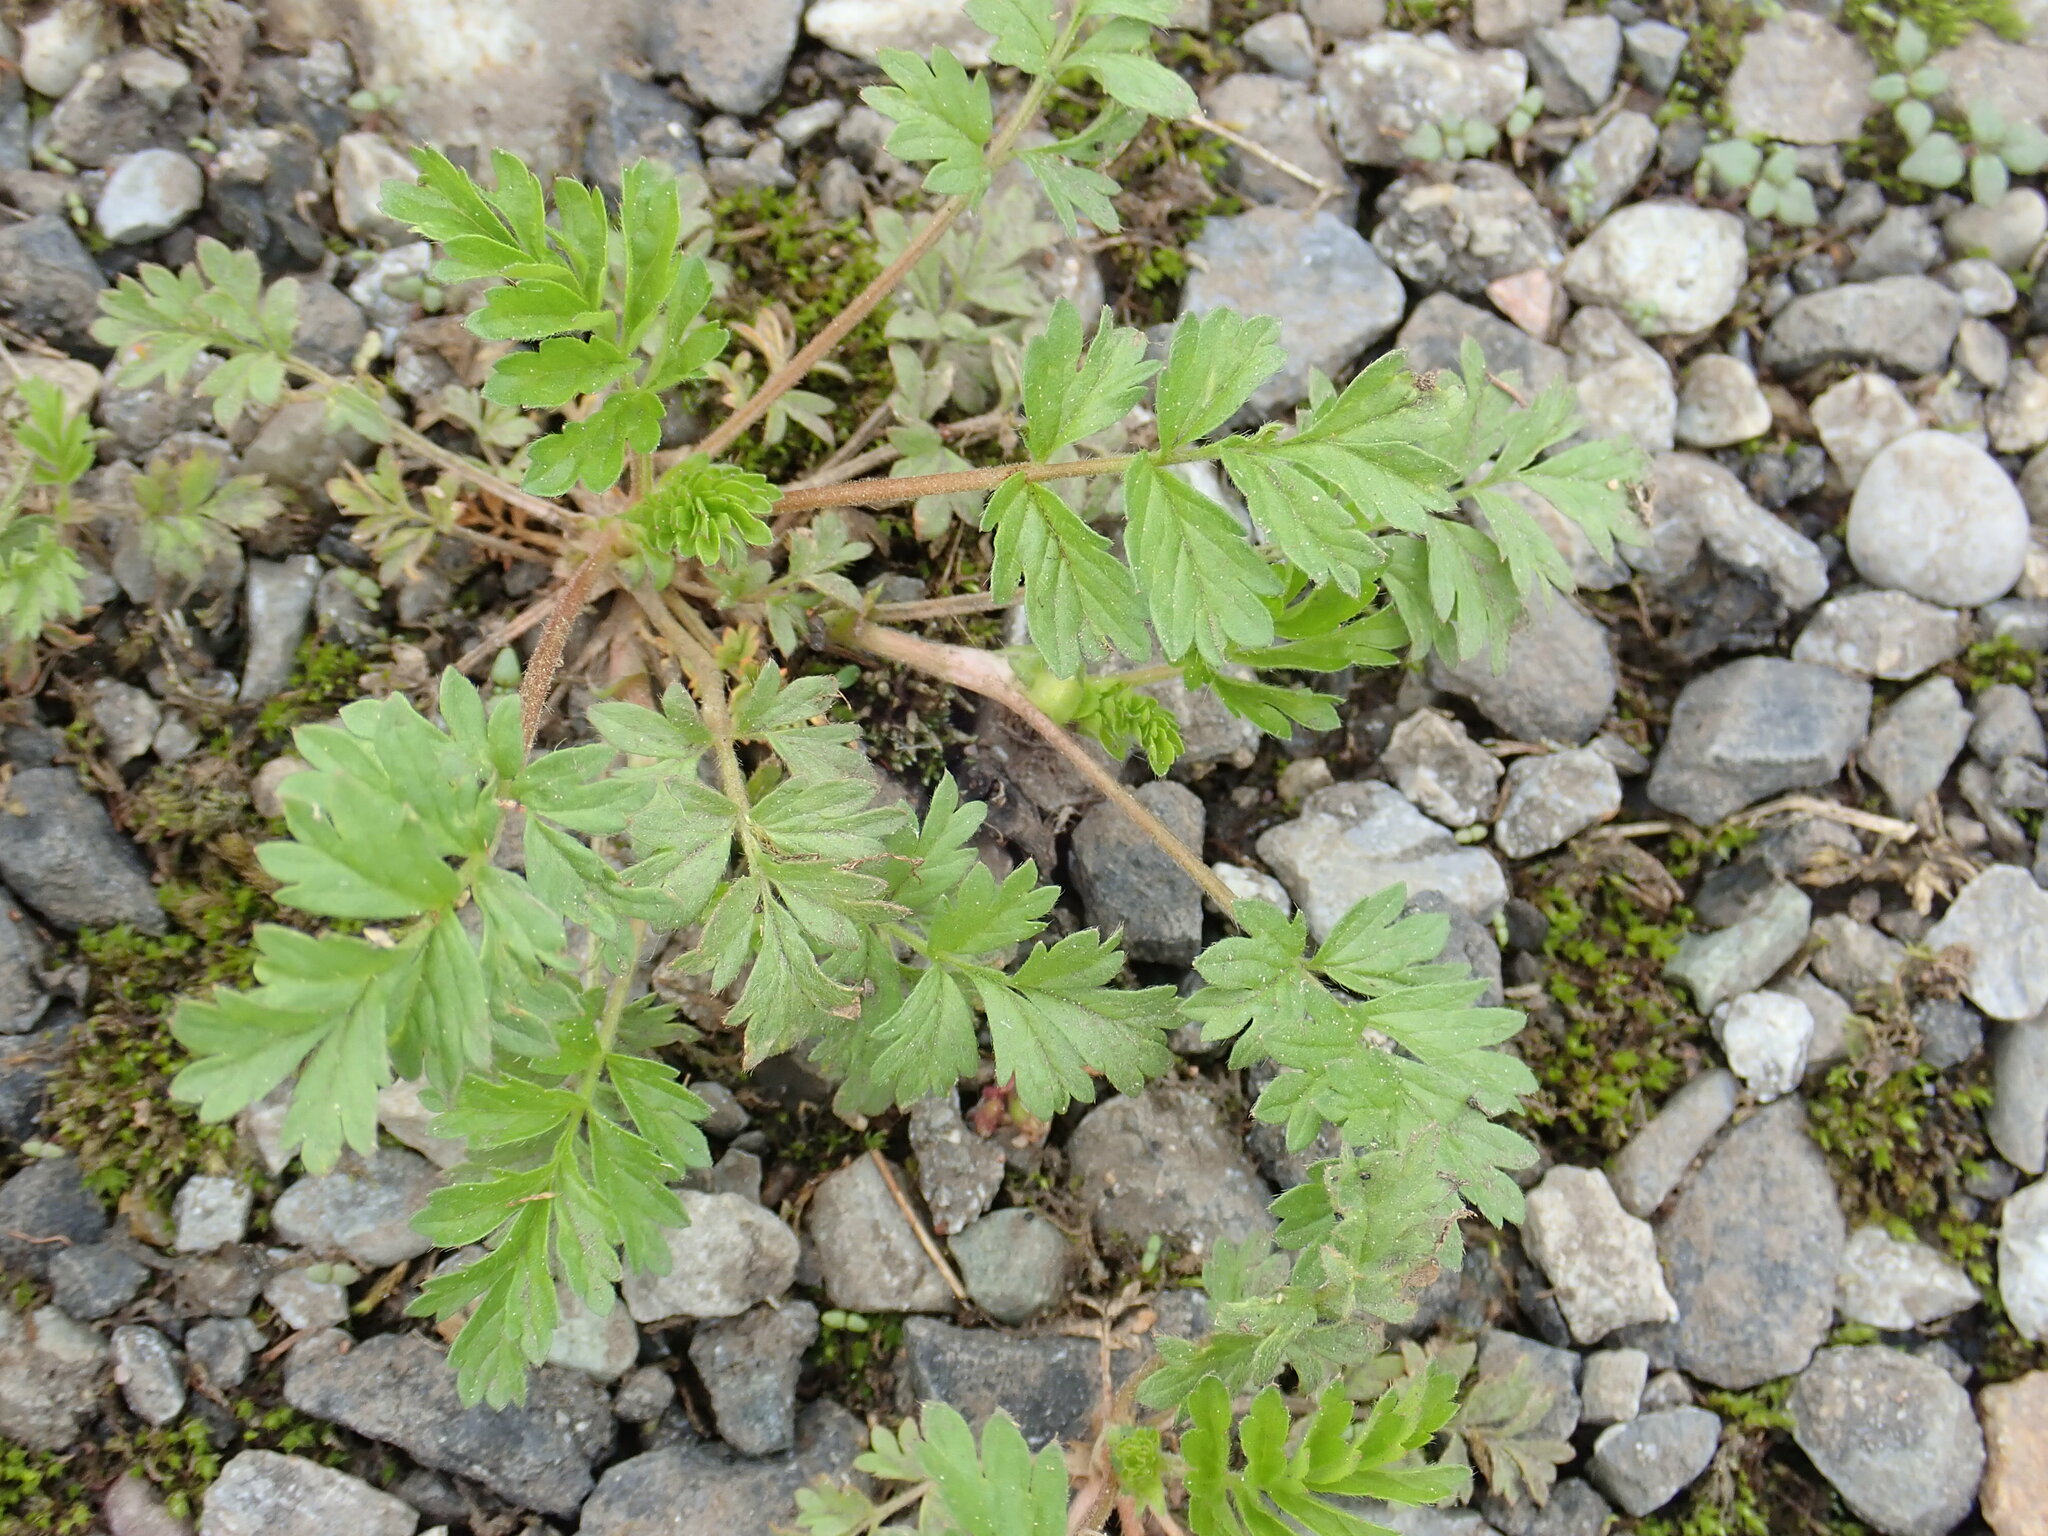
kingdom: Plantae
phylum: Tracheophyta
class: Magnoliopsida
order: Rosales
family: Rosaceae
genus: Potentilla
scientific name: Potentilla supina
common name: Prostrate cinquefoil
